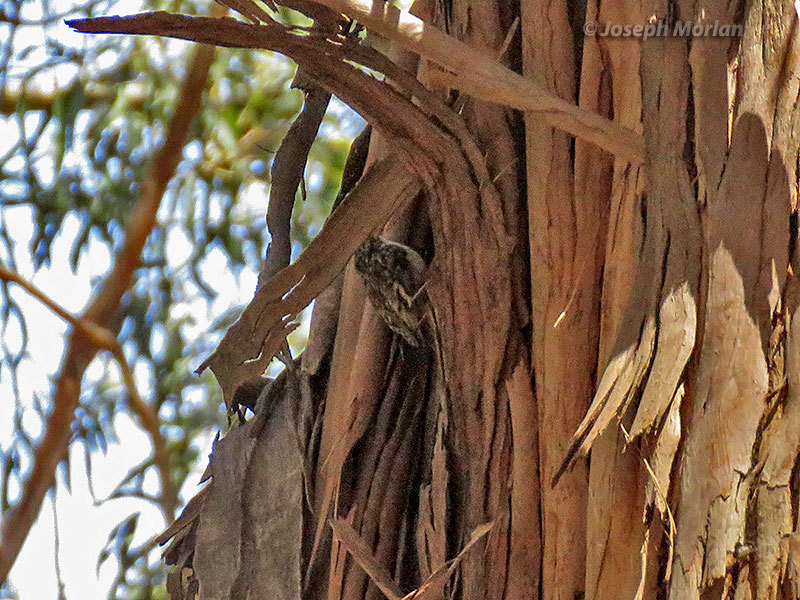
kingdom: Animalia
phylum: Chordata
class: Aves
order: Passeriformes
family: Certhiidae
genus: Certhia
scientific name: Certhia americana
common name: Brown creeper
